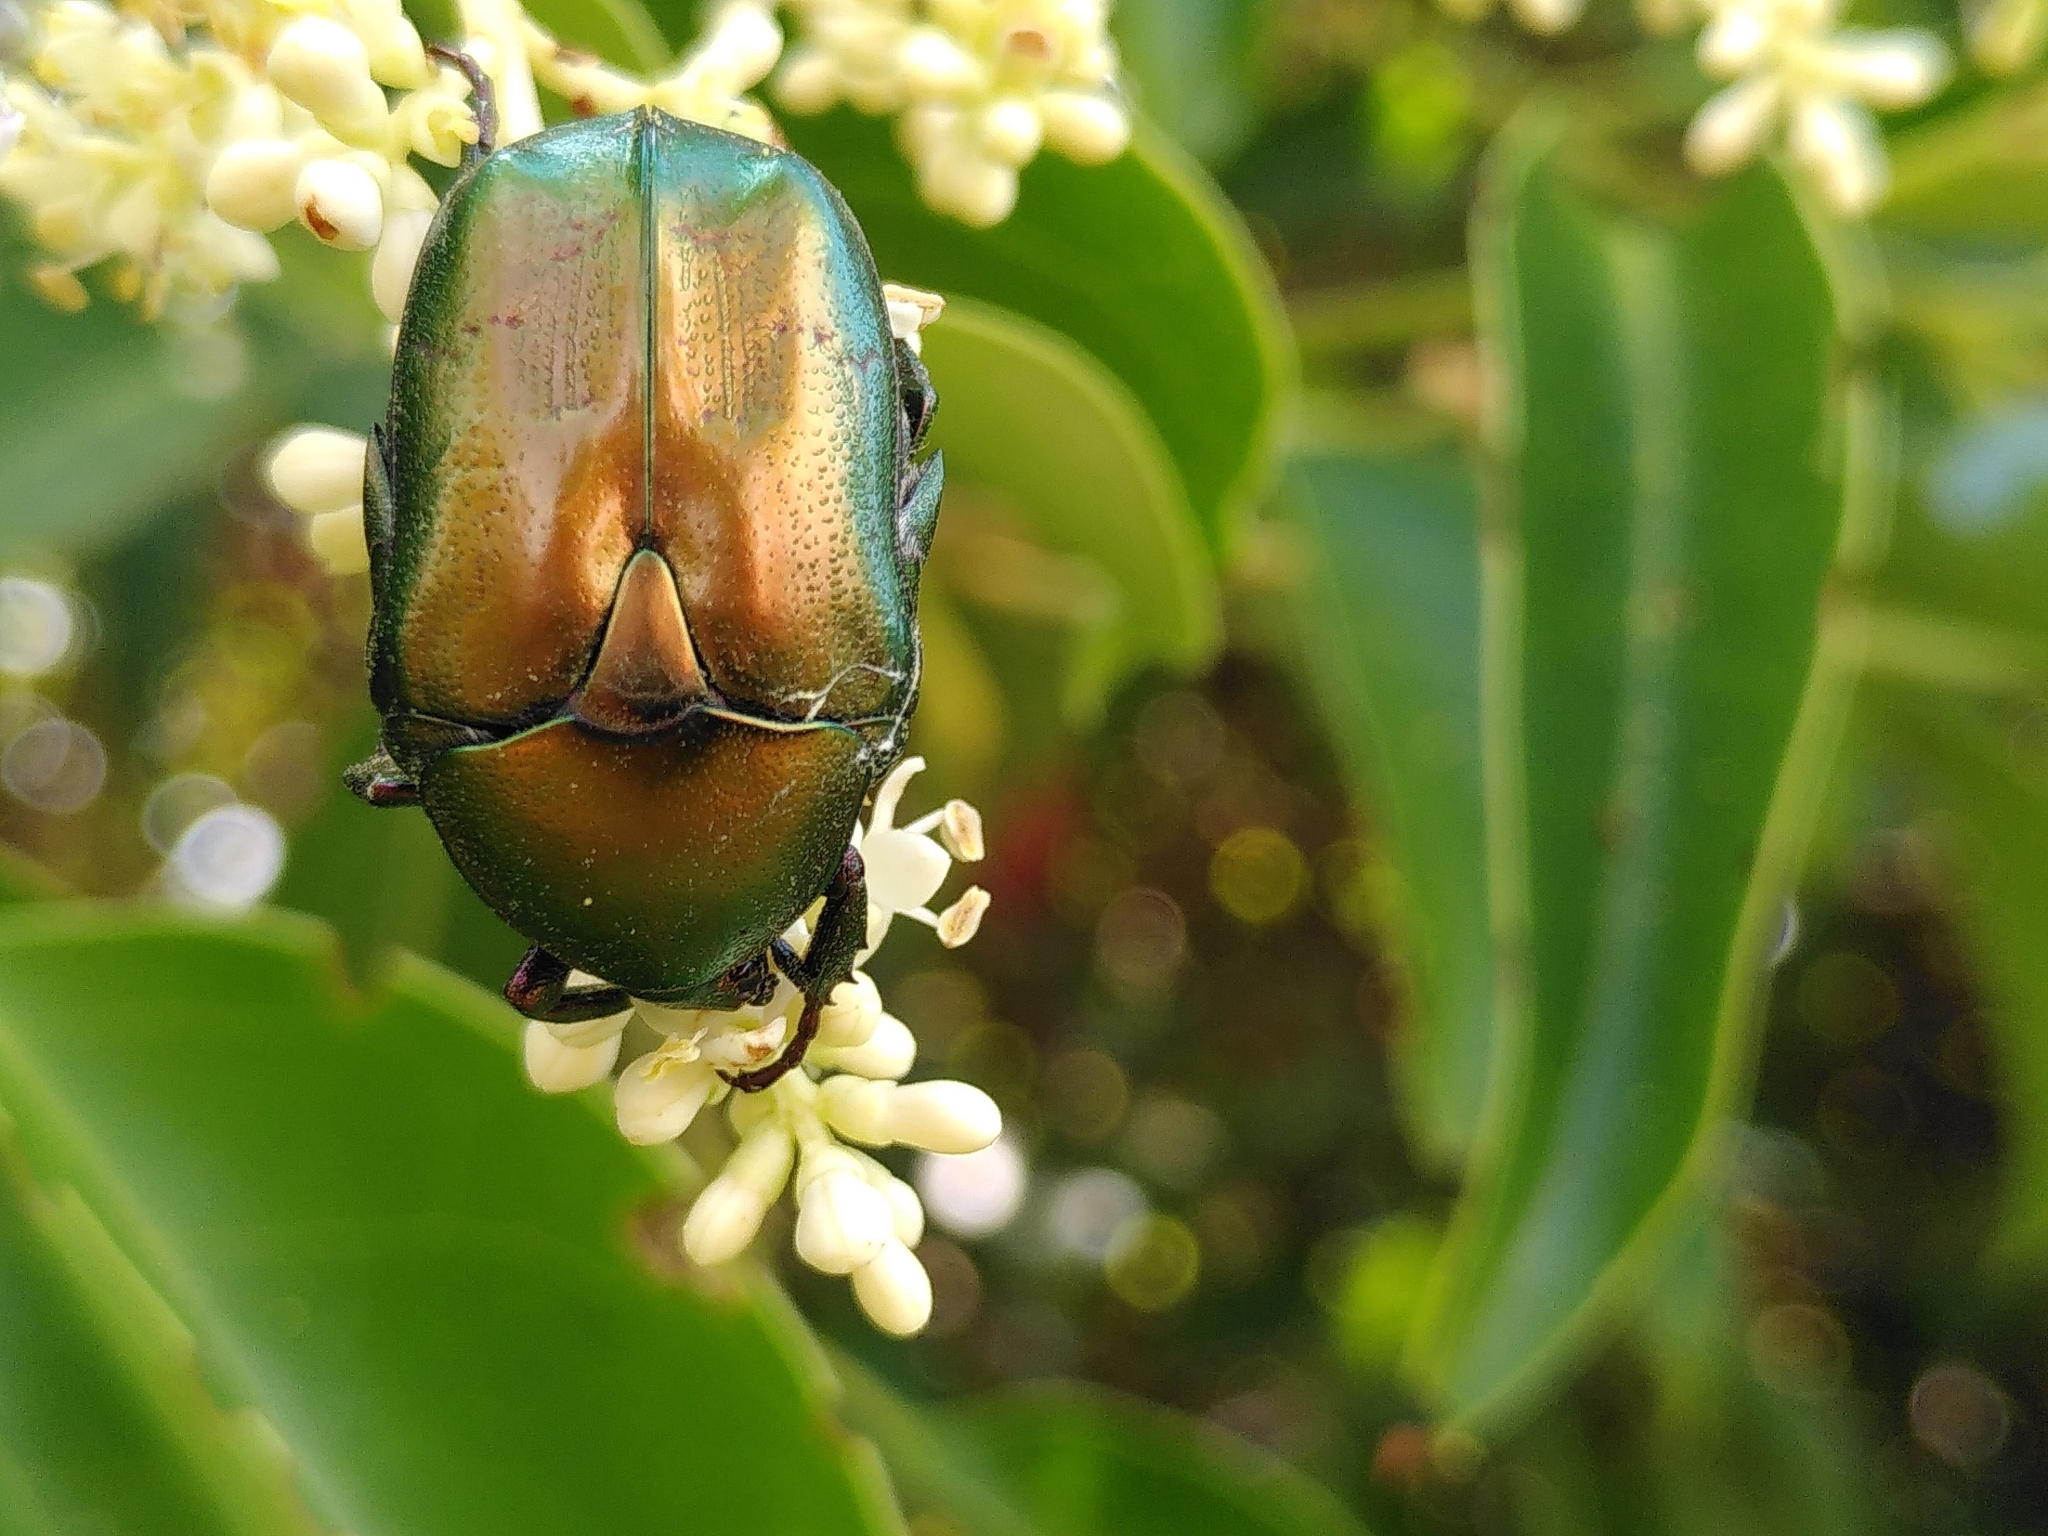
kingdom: Animalia
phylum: Arthropoda
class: Insecta
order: Coleoptera
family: Scarabaeidae
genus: Protaetia
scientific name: Protaetia cuprea
